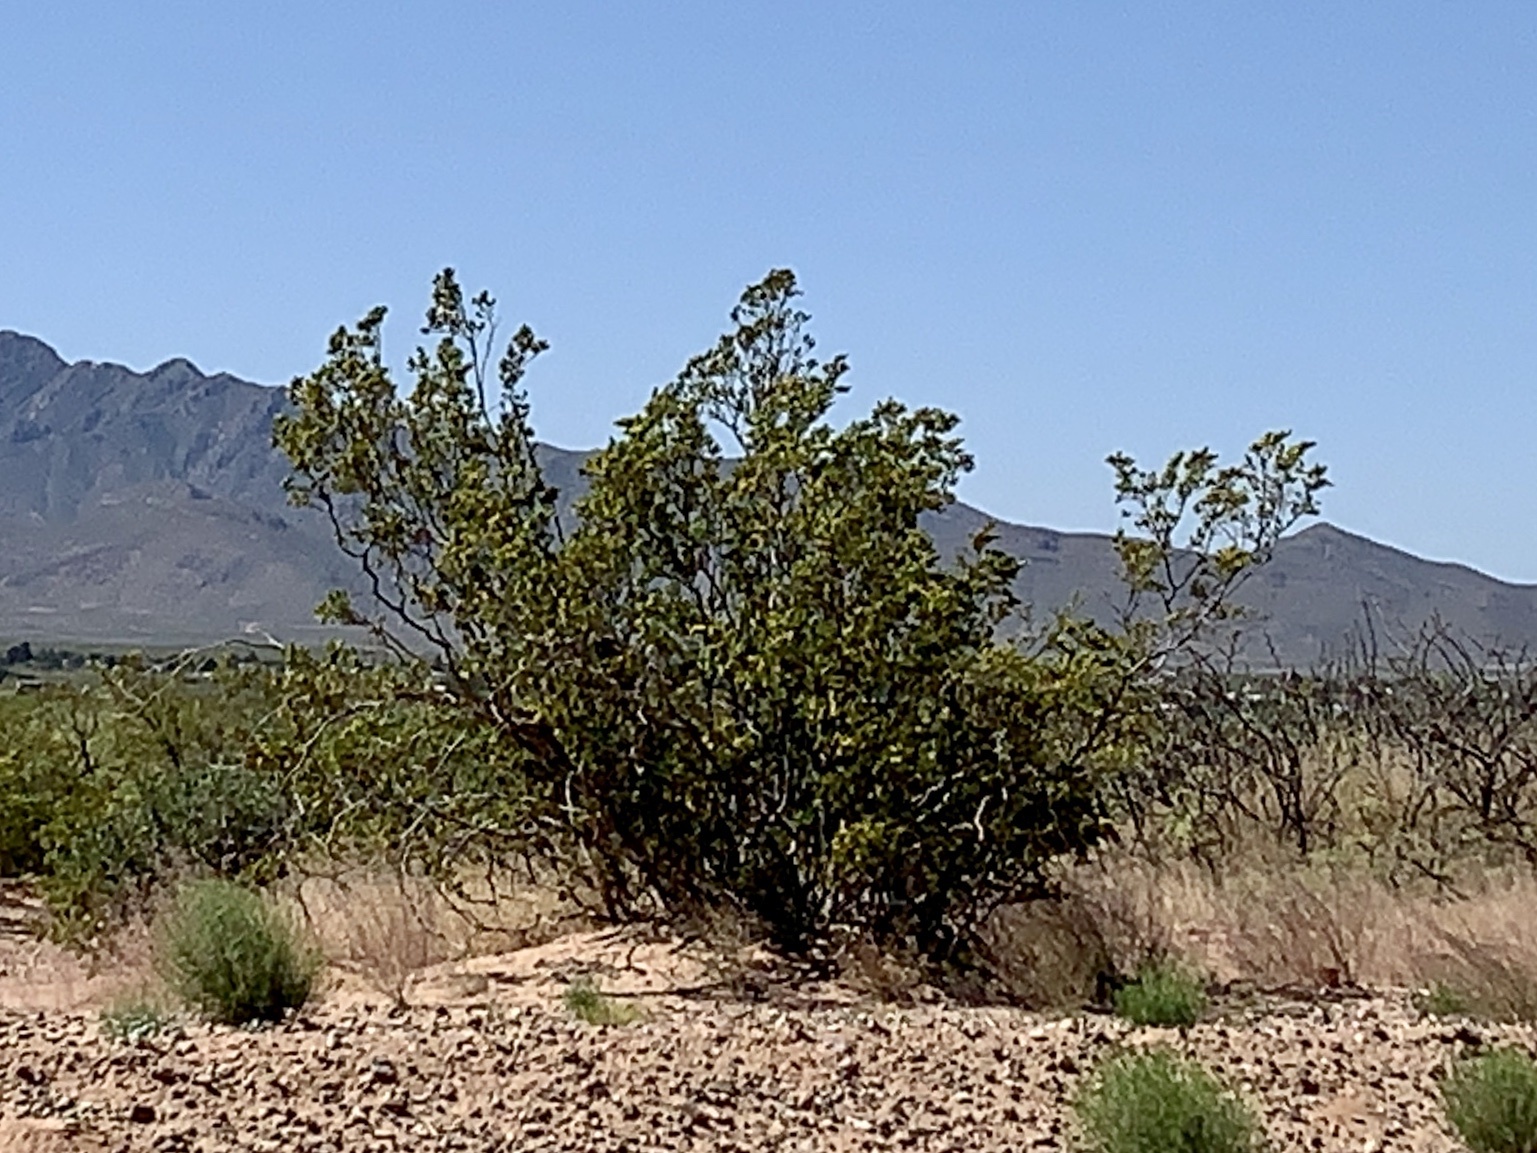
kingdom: Plantae
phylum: Tracheophyta
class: Magnoliopsida
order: Zygophyllales
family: Zygophyllaceae
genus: Larrea
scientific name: Larrea tridentata
